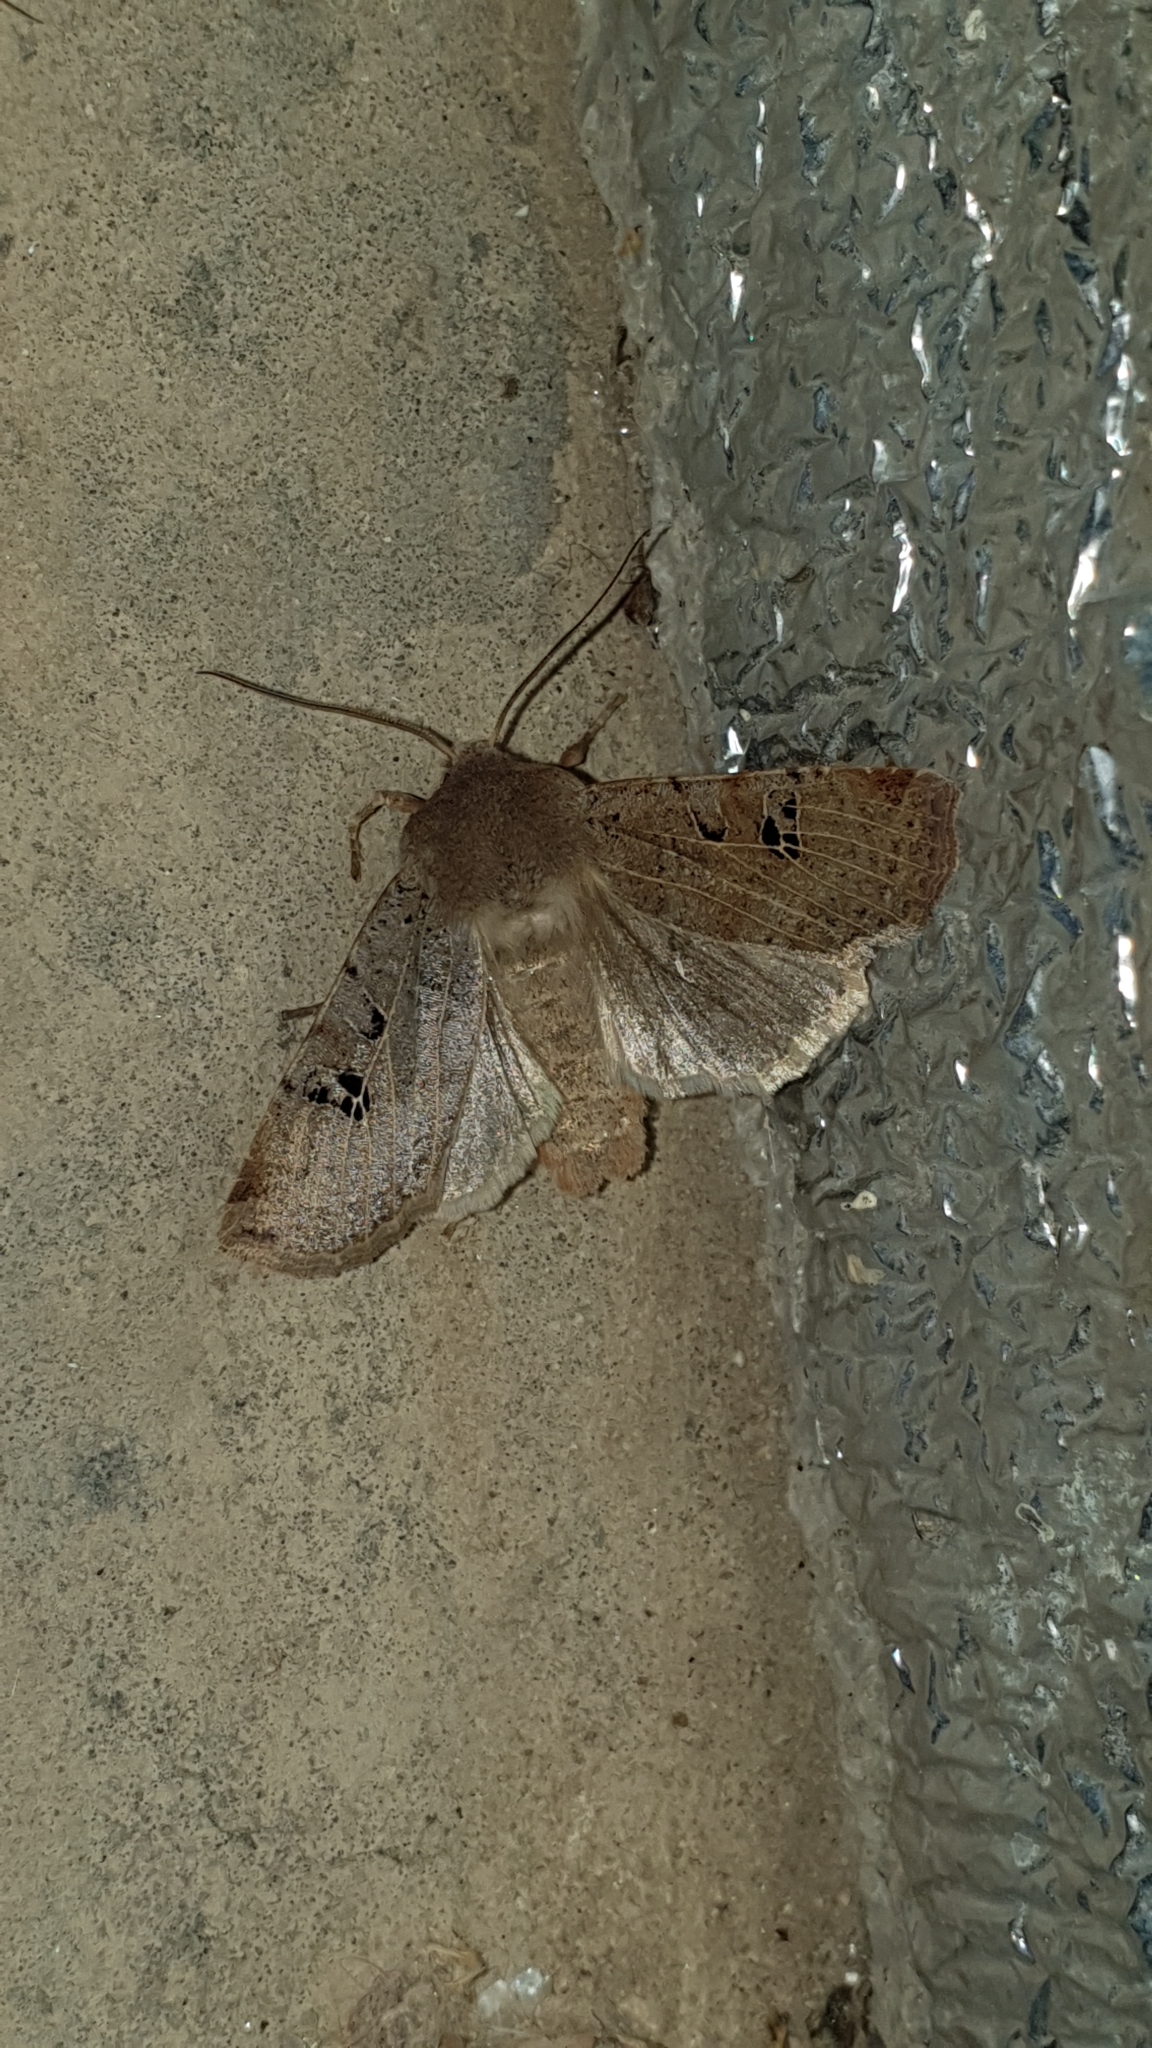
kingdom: Animalia
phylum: Arthropoda
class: Insecta
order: Lepidoptera
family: Noctuidae
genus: Conistra
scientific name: Conistra rubiginosa
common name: Black-spotted chestnut
